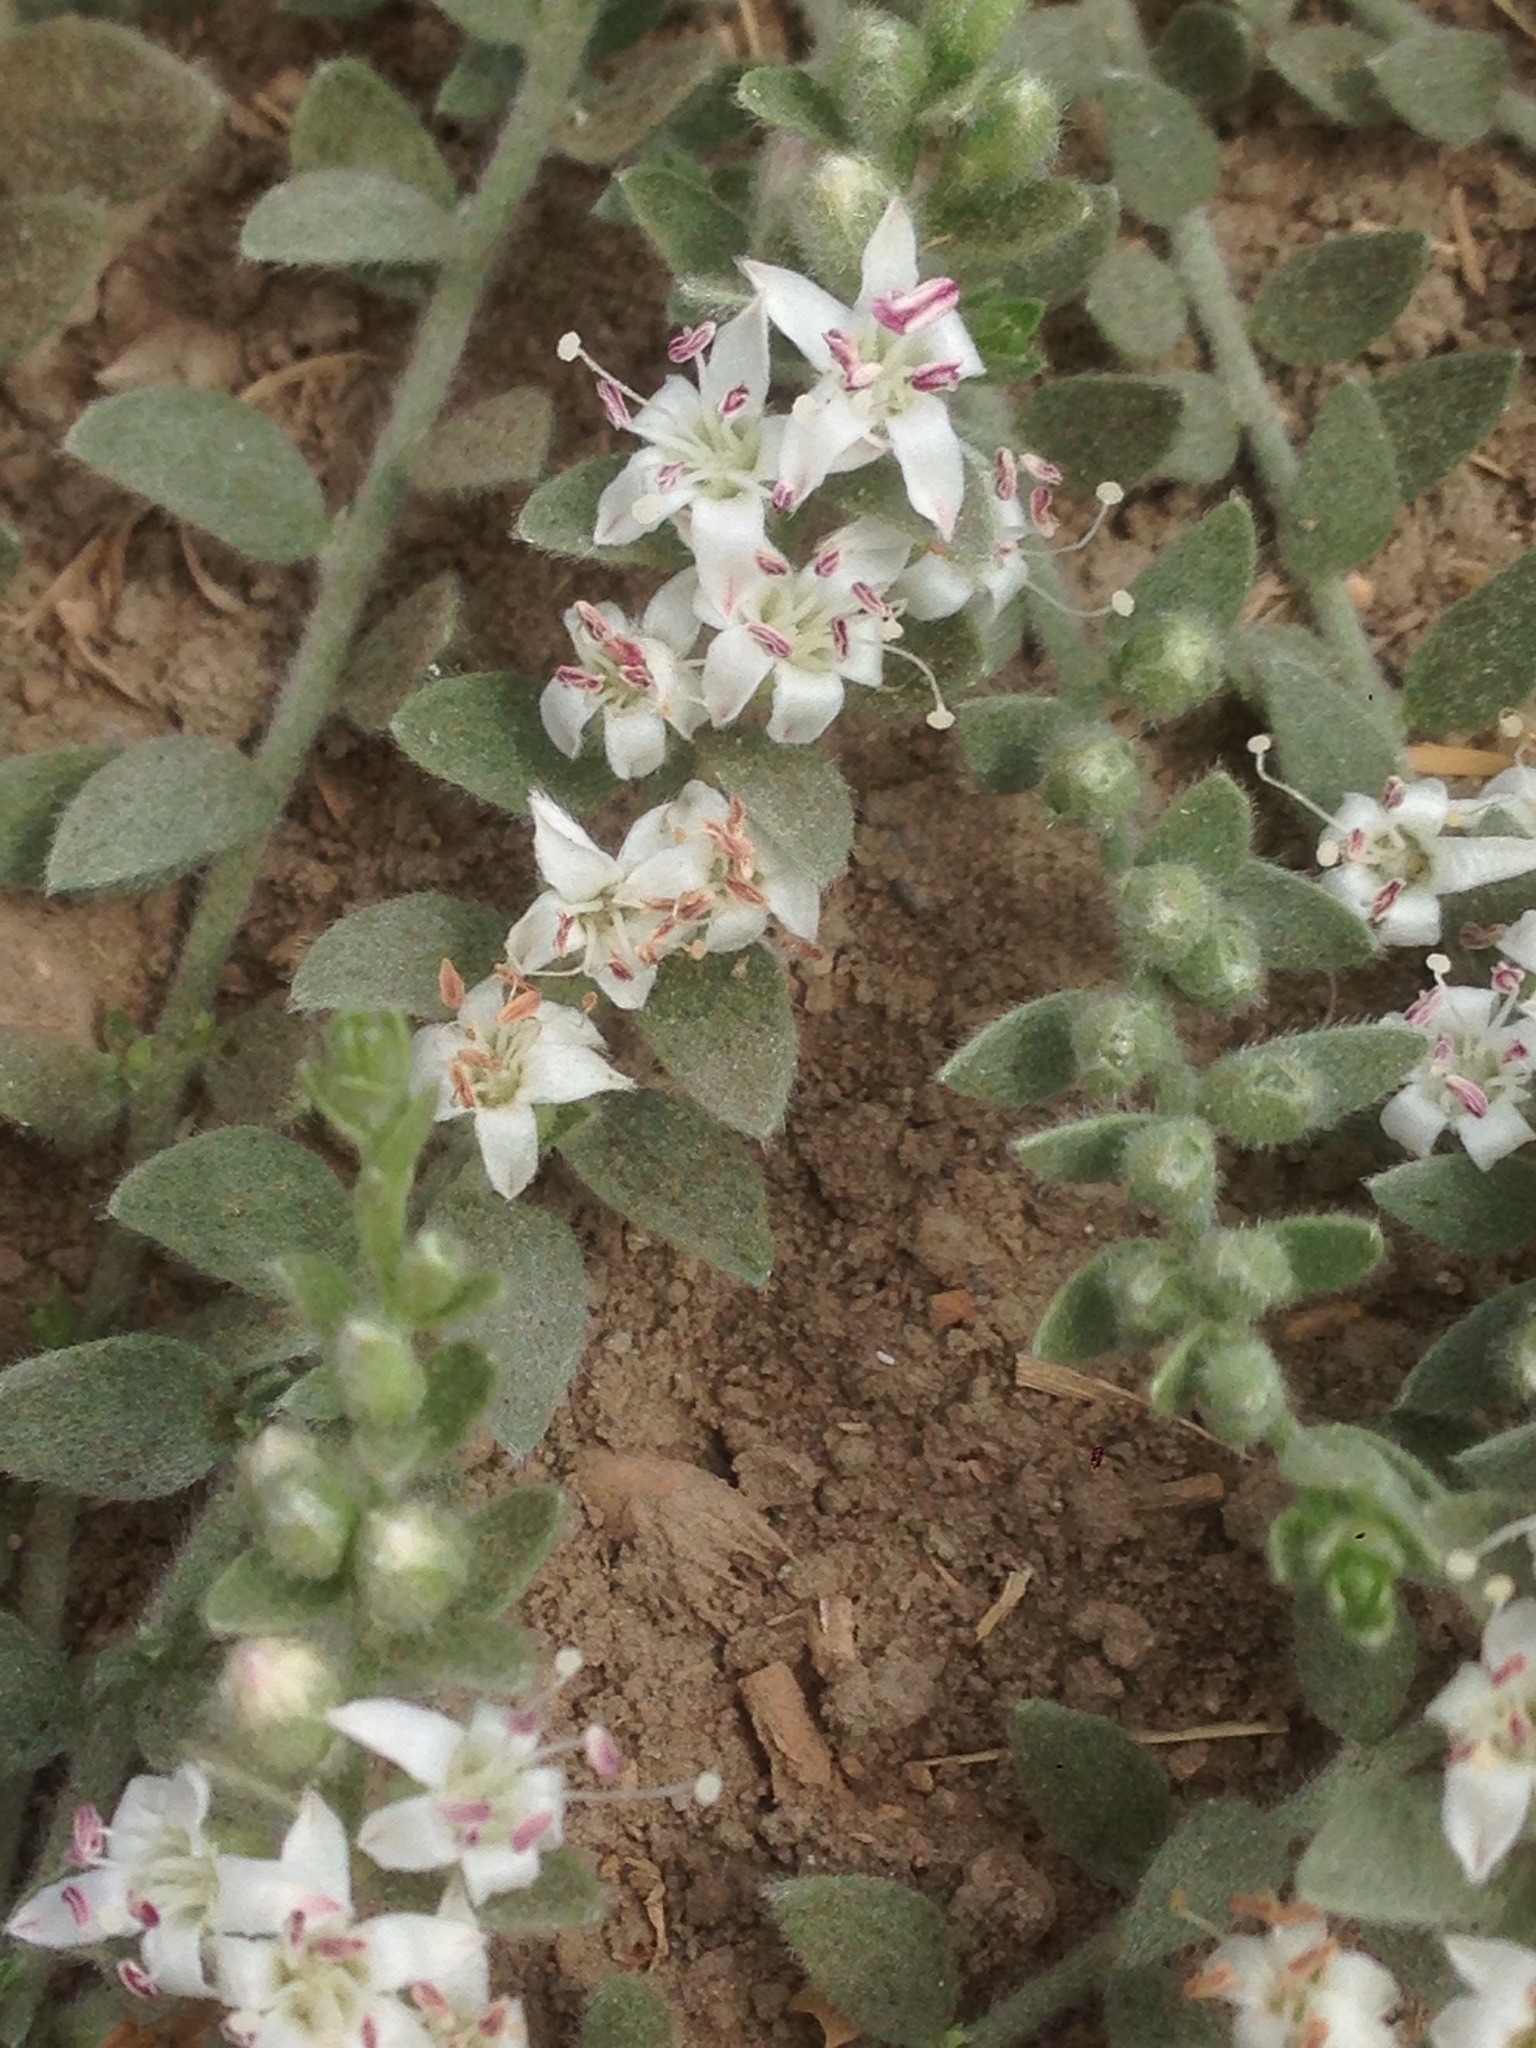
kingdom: Plantae
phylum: Tracheophyta
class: Magnoliopsida
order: Solanales
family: Convolvulaceae
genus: Cressa
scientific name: Cressa truxillensis
